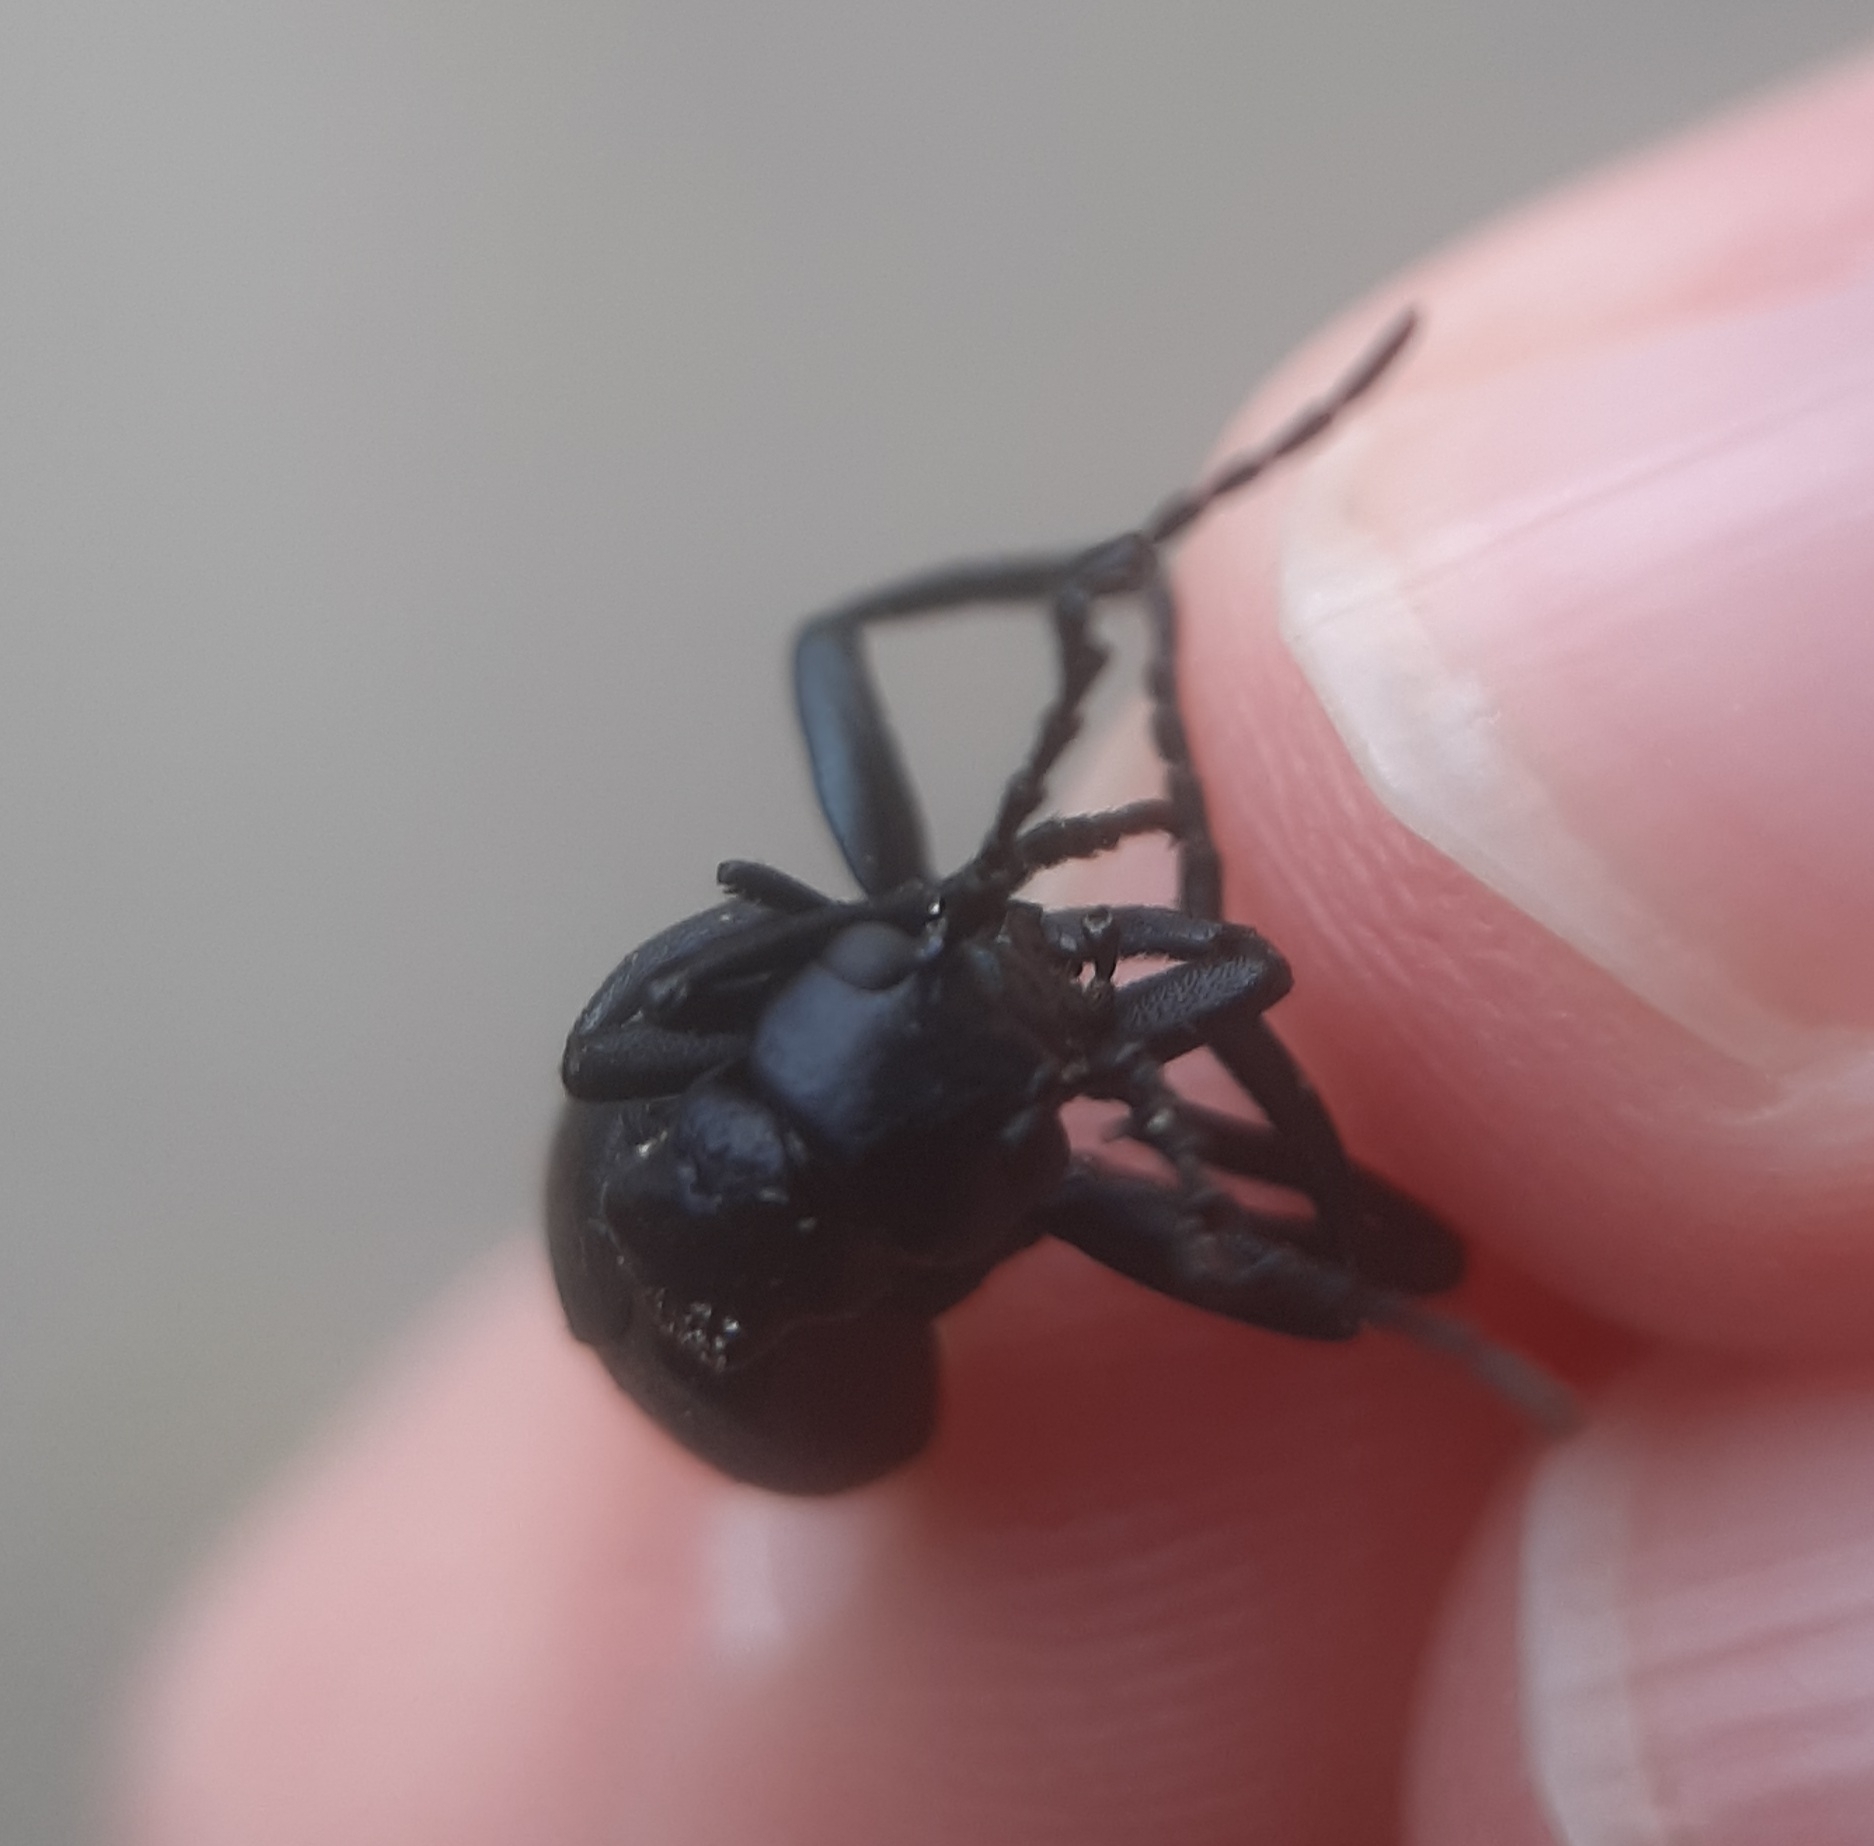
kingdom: Animalia
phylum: Arthropoda
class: Insecta
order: Coleoptera
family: Meloidae
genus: Meloe
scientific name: Meloe americanus
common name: Buttercup oil beetle
